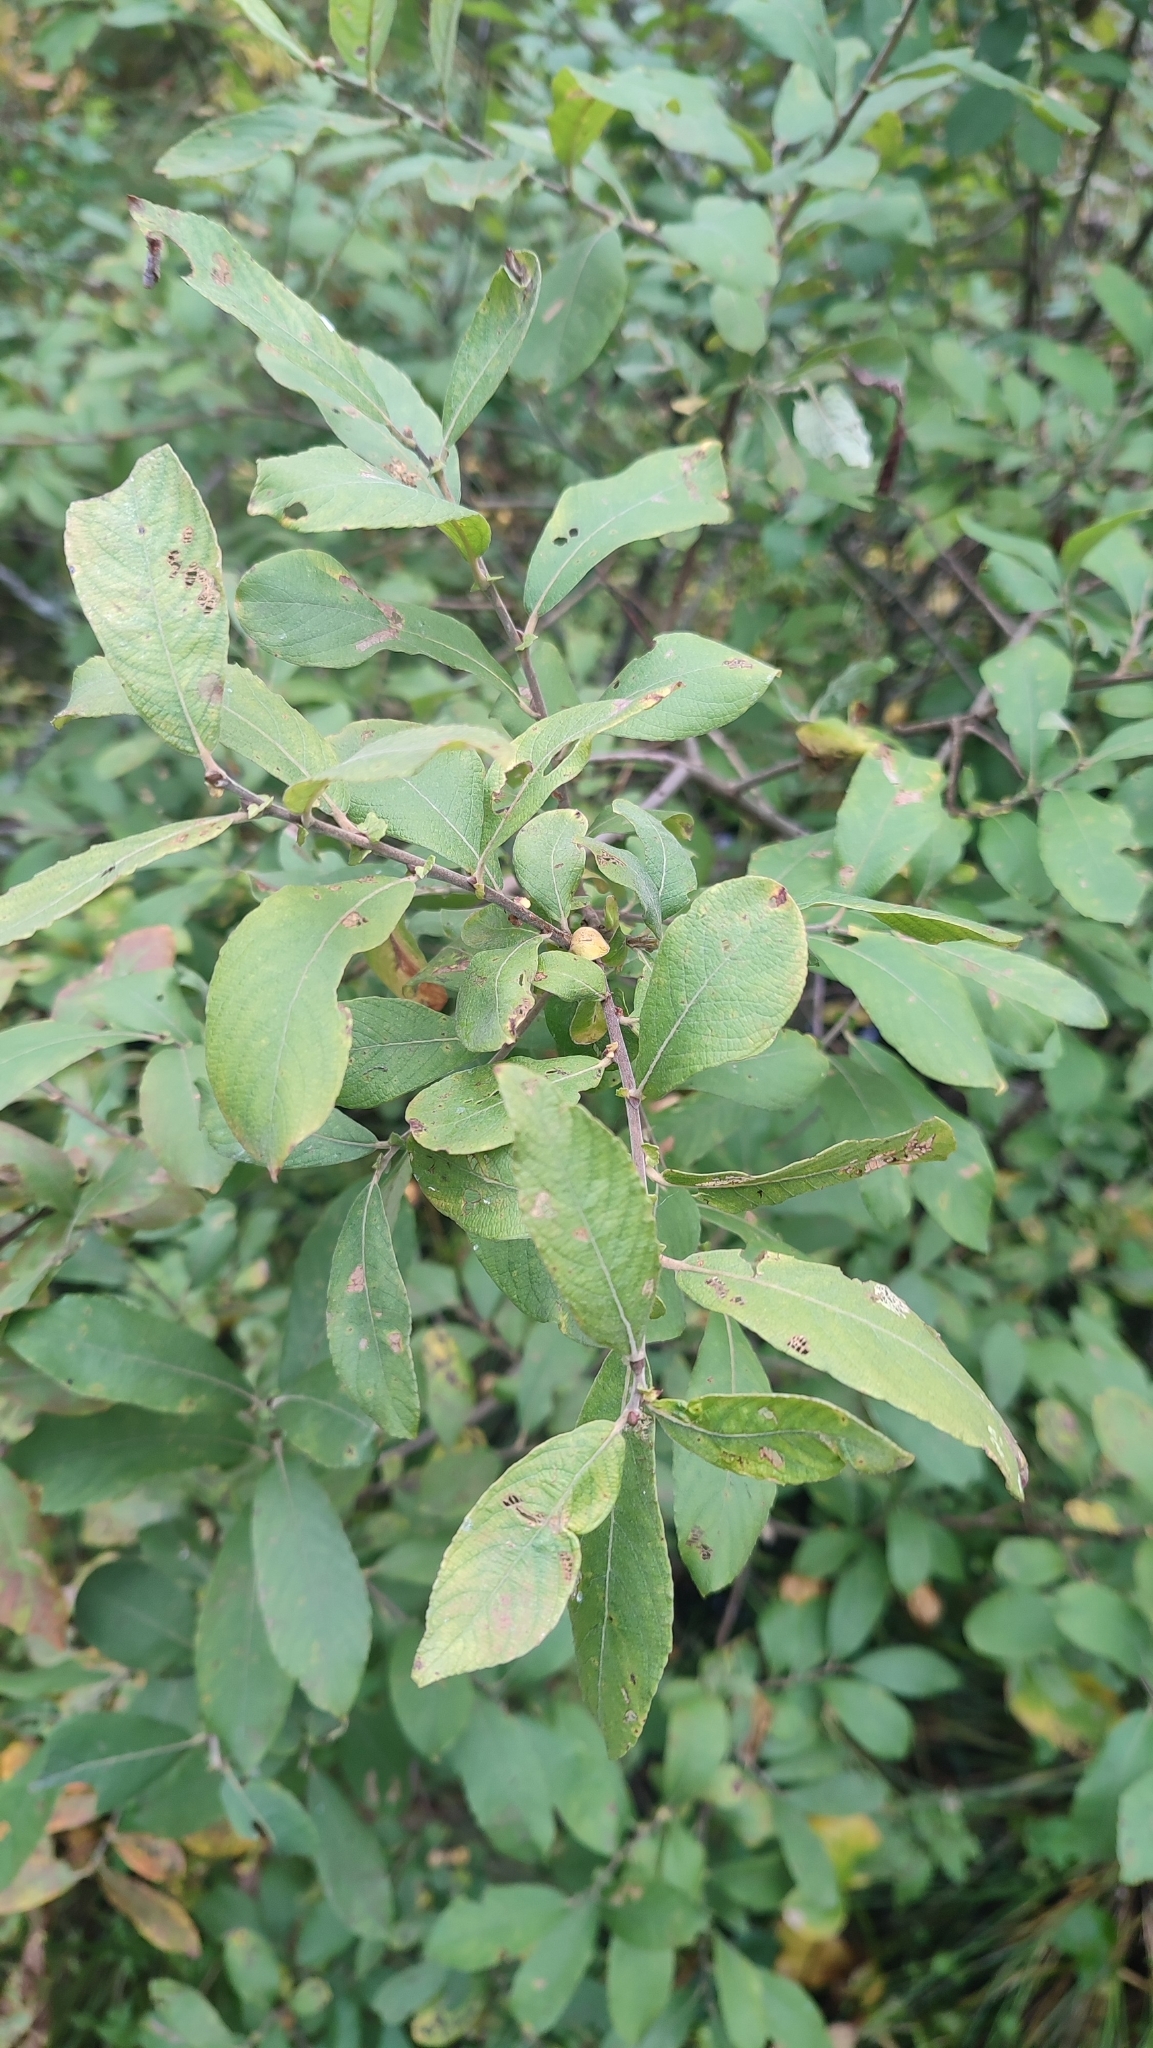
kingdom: Plantae
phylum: Tracheophyta
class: Magnoliopsida
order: Malpighiales
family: Salicaceae
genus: Salix
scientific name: Salix cinerea
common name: Common sallow
